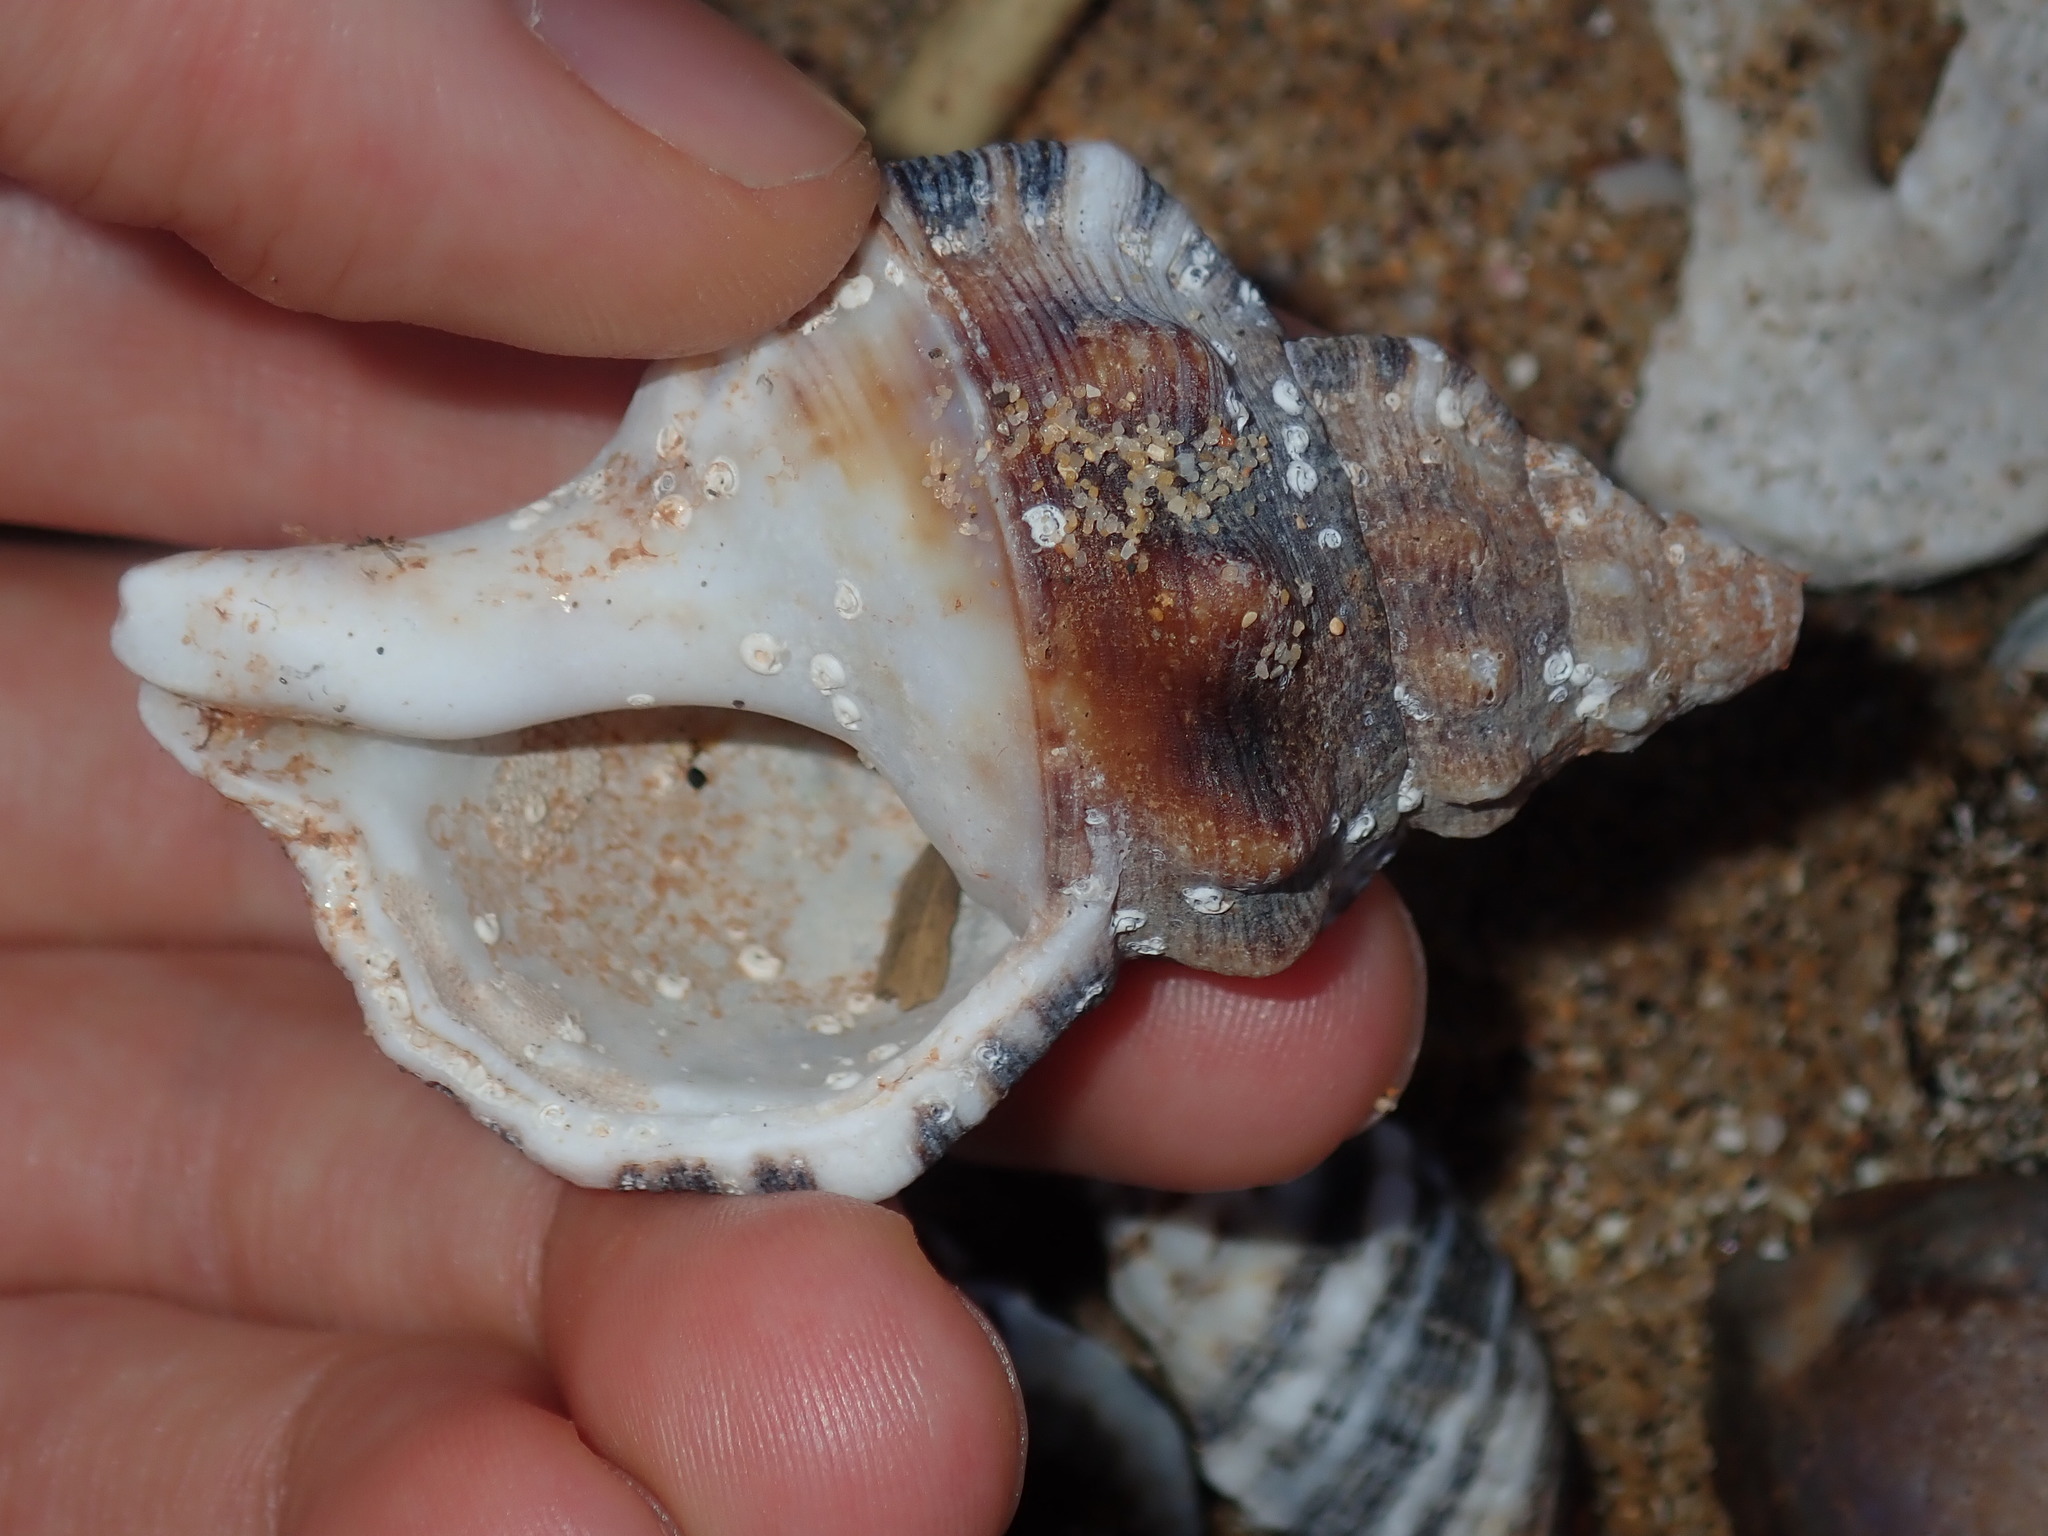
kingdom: Animalia
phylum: Mollusca
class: Gastropoda
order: Littorinimorpha
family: Ranellidae
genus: Ranella
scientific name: Ranella australasia
